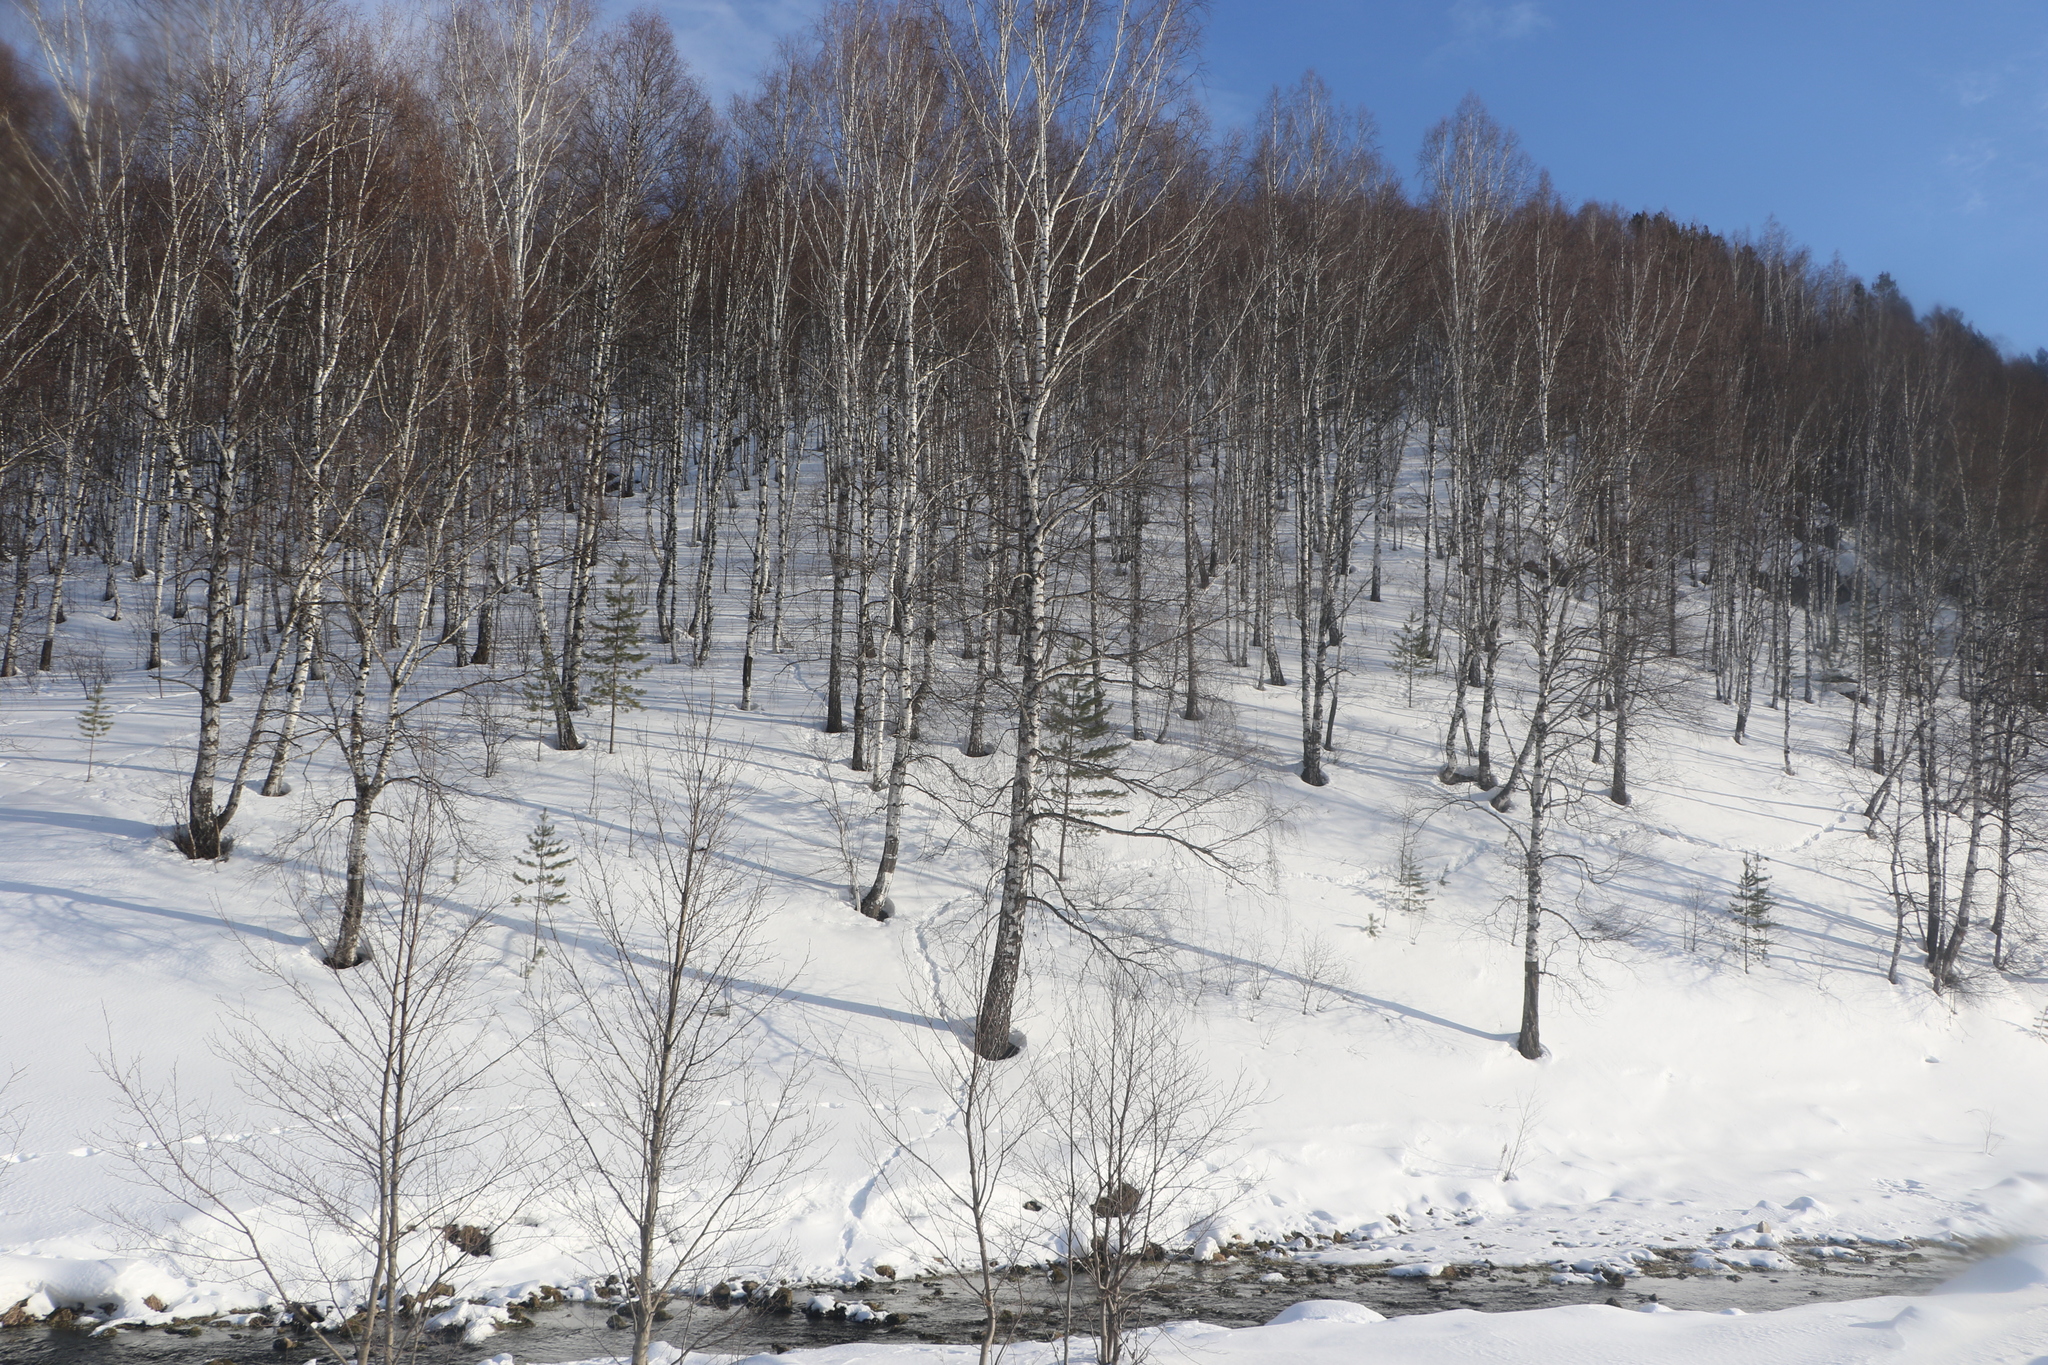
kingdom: Plantae
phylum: Tracheophyta
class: Magnoliopsida
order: Fagales
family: Betulaceae
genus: Betula
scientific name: Betula pendula
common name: Silver birch
